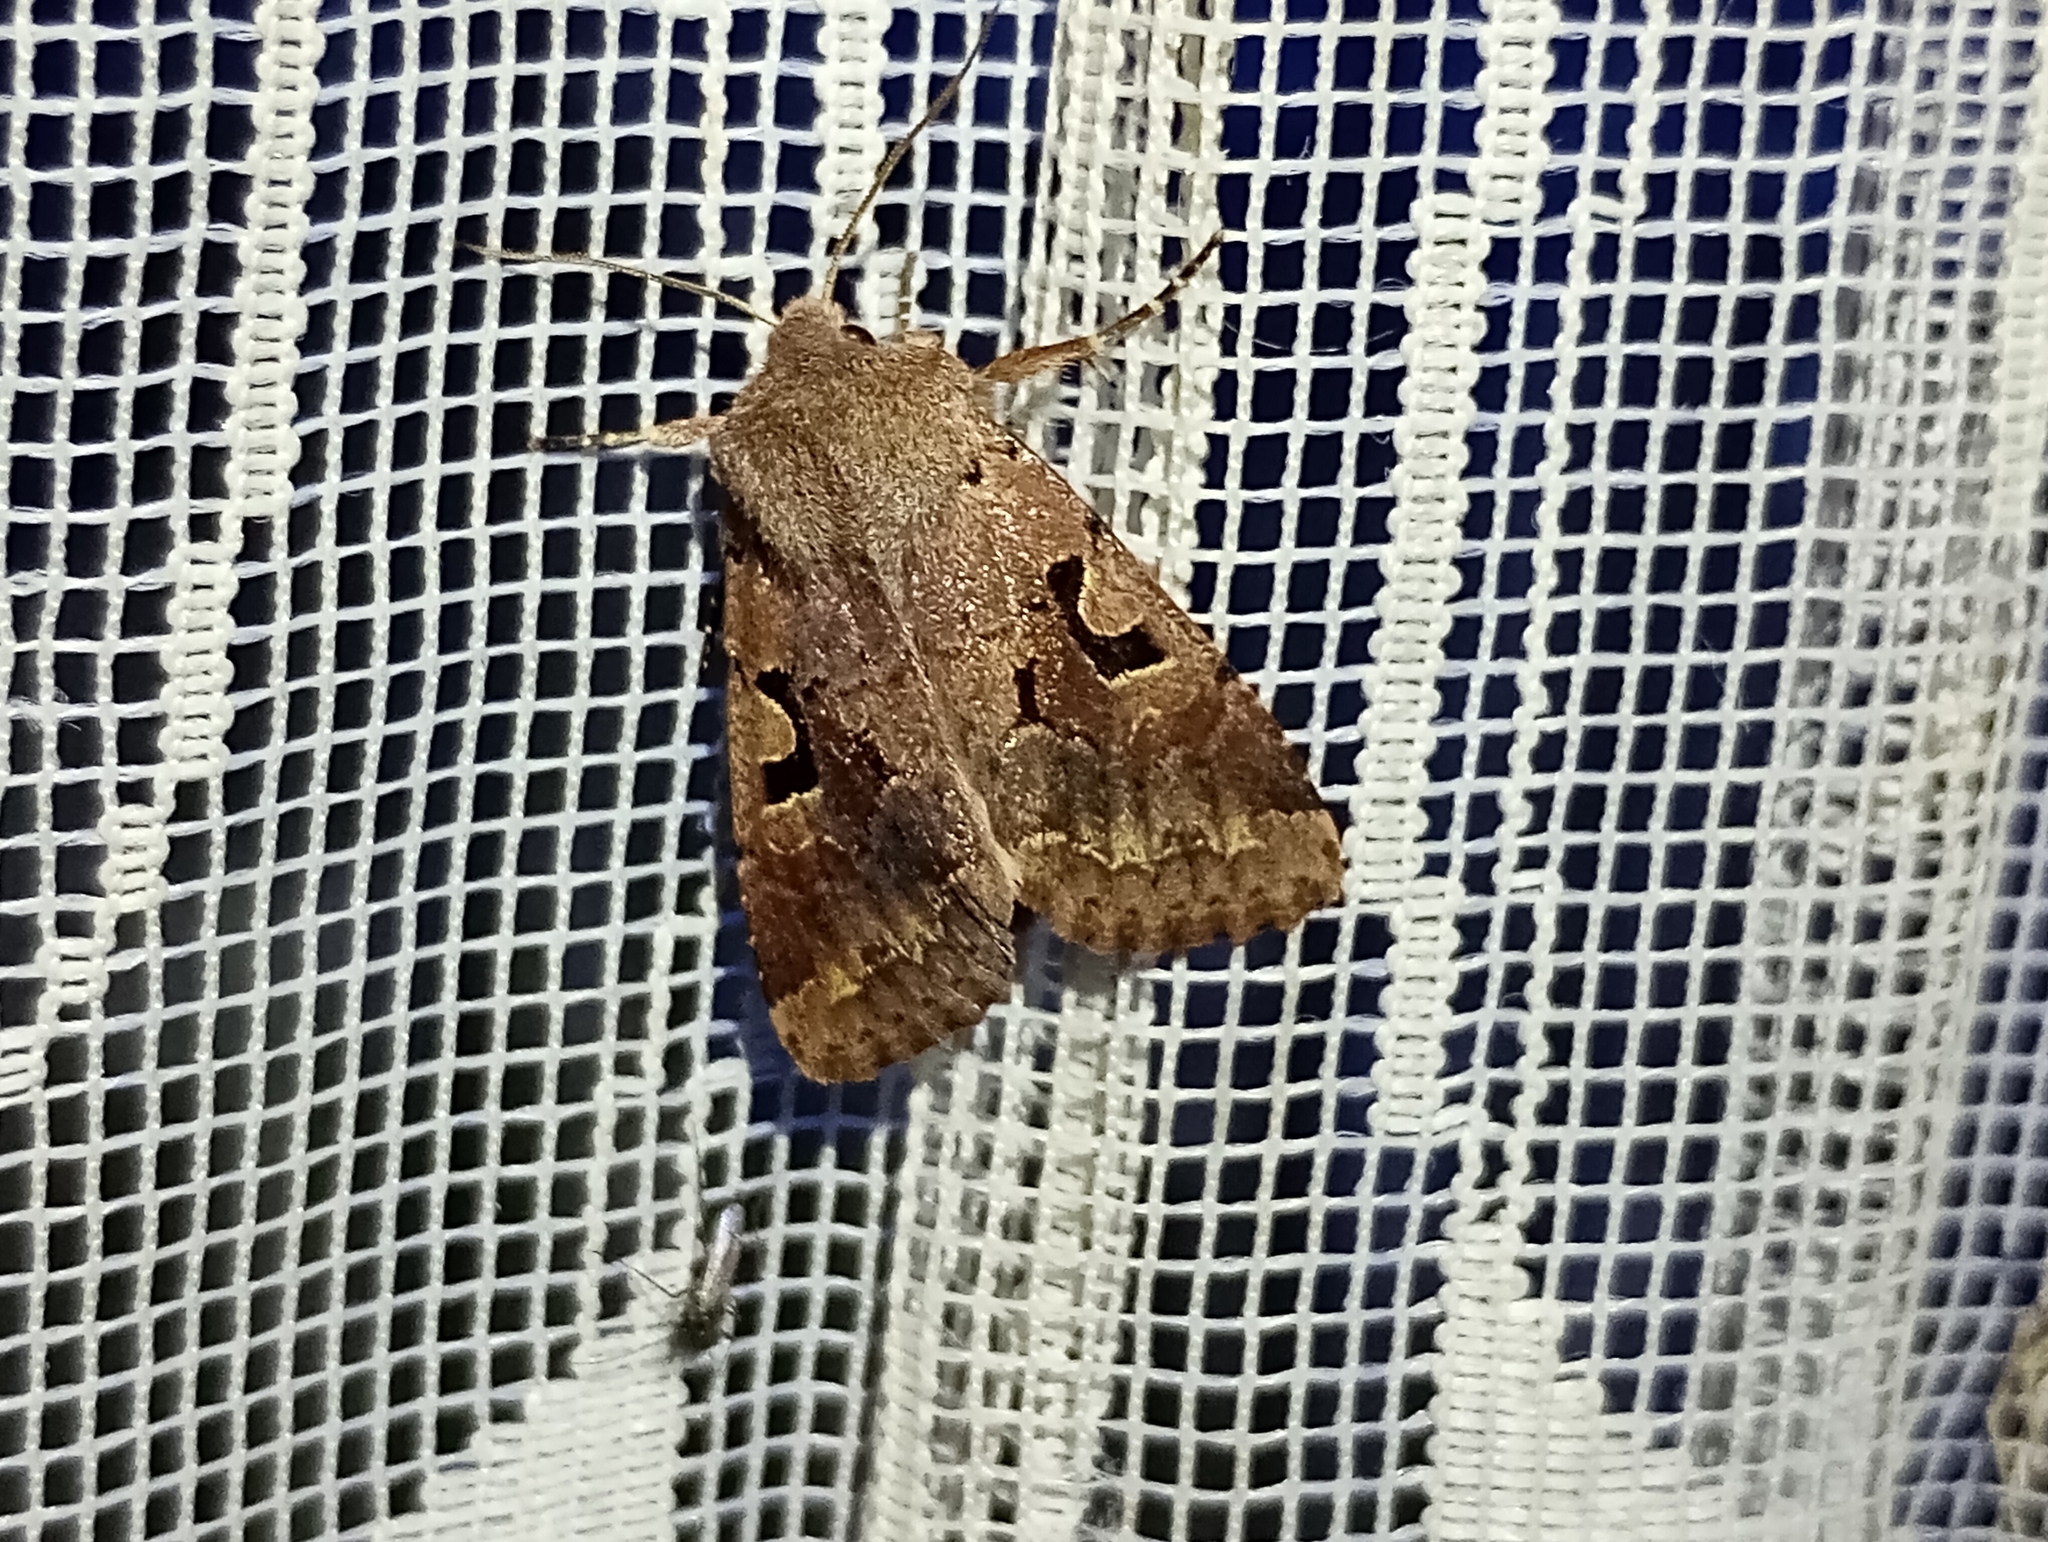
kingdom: Animalia
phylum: Arthropoda
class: Insecta
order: Lepidoptera
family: Noctuidae
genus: Orthosia
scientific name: Orthosia gothica
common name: Hebrew character
